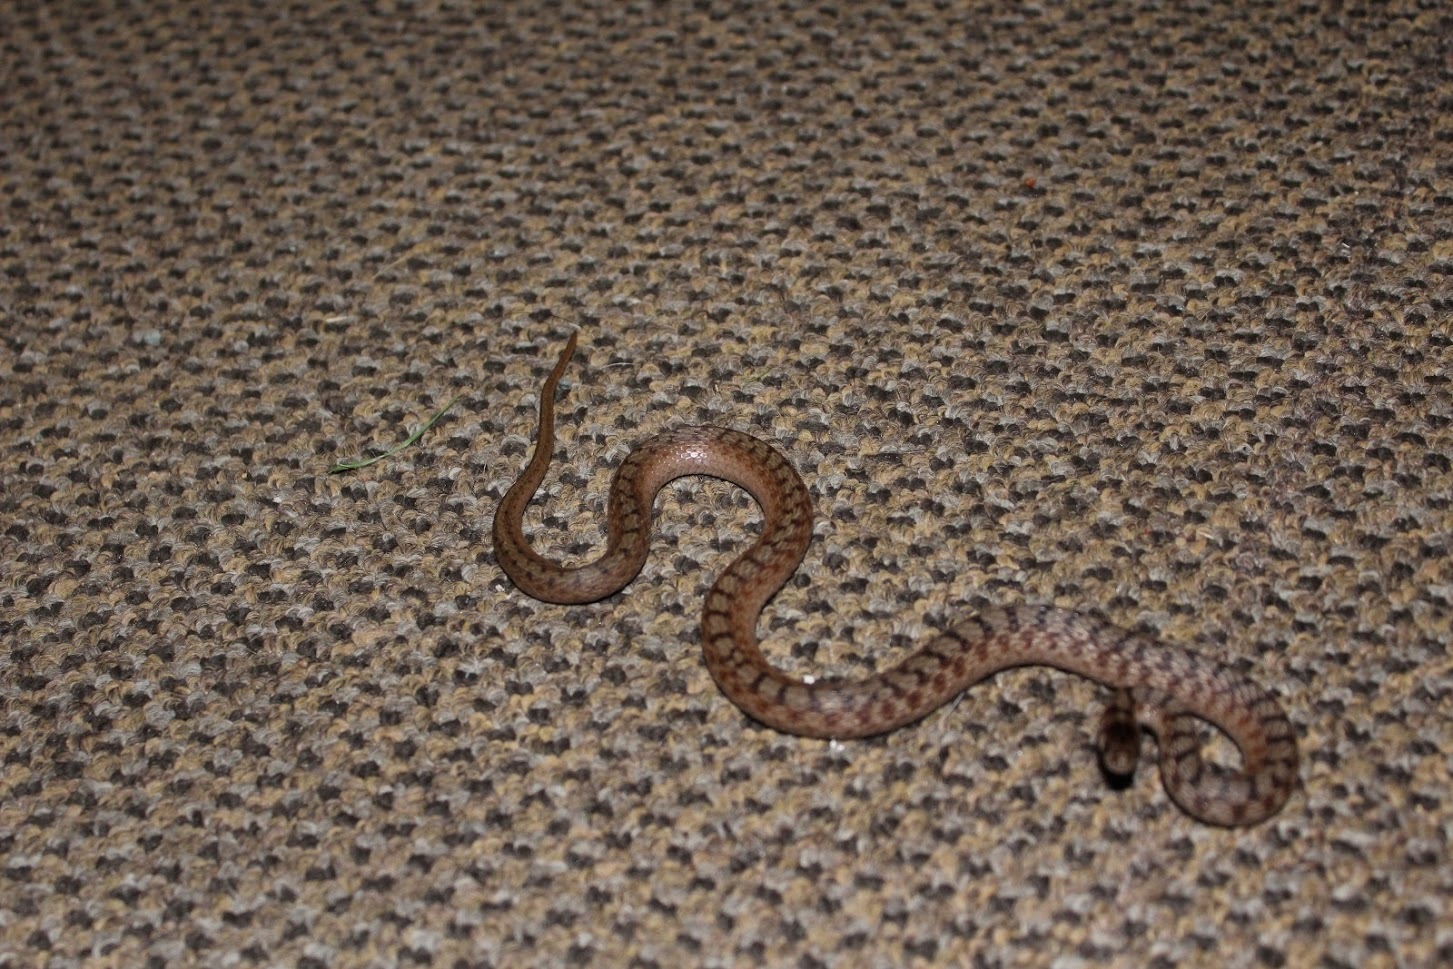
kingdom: Animalia
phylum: Chordata
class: Squamata
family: Colubridae
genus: Storeria
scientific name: Storeria dekayi
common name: (dekay’s) brown snake
